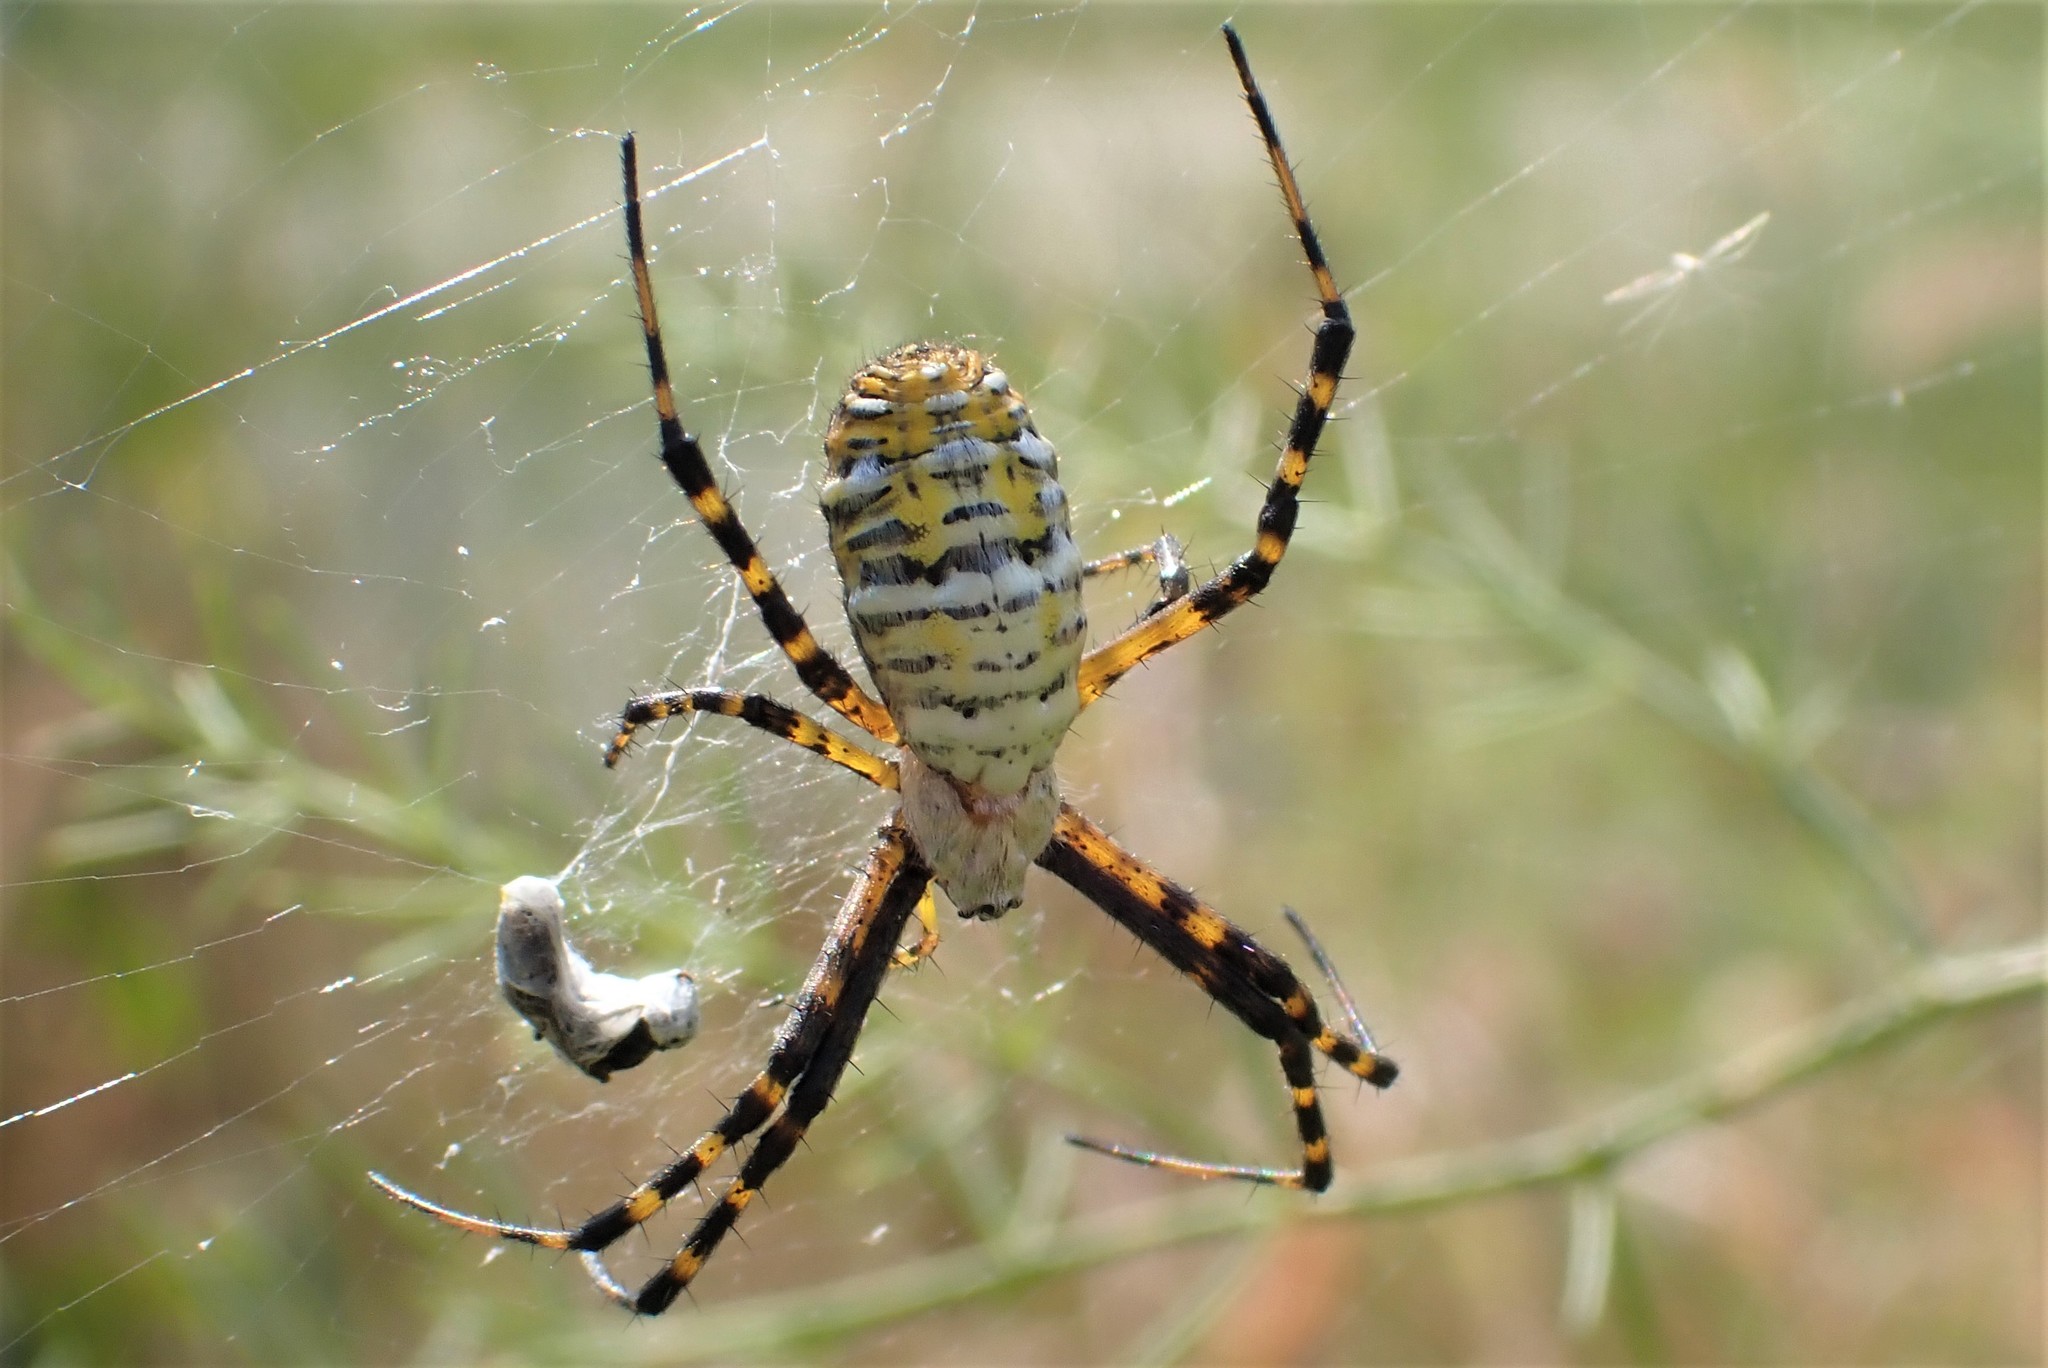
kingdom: Animalia
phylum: Arthropoda
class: Arachnida
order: Araneae
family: Araneidae
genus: Argiope
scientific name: Argiope trifasciata
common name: Banded garden spider
